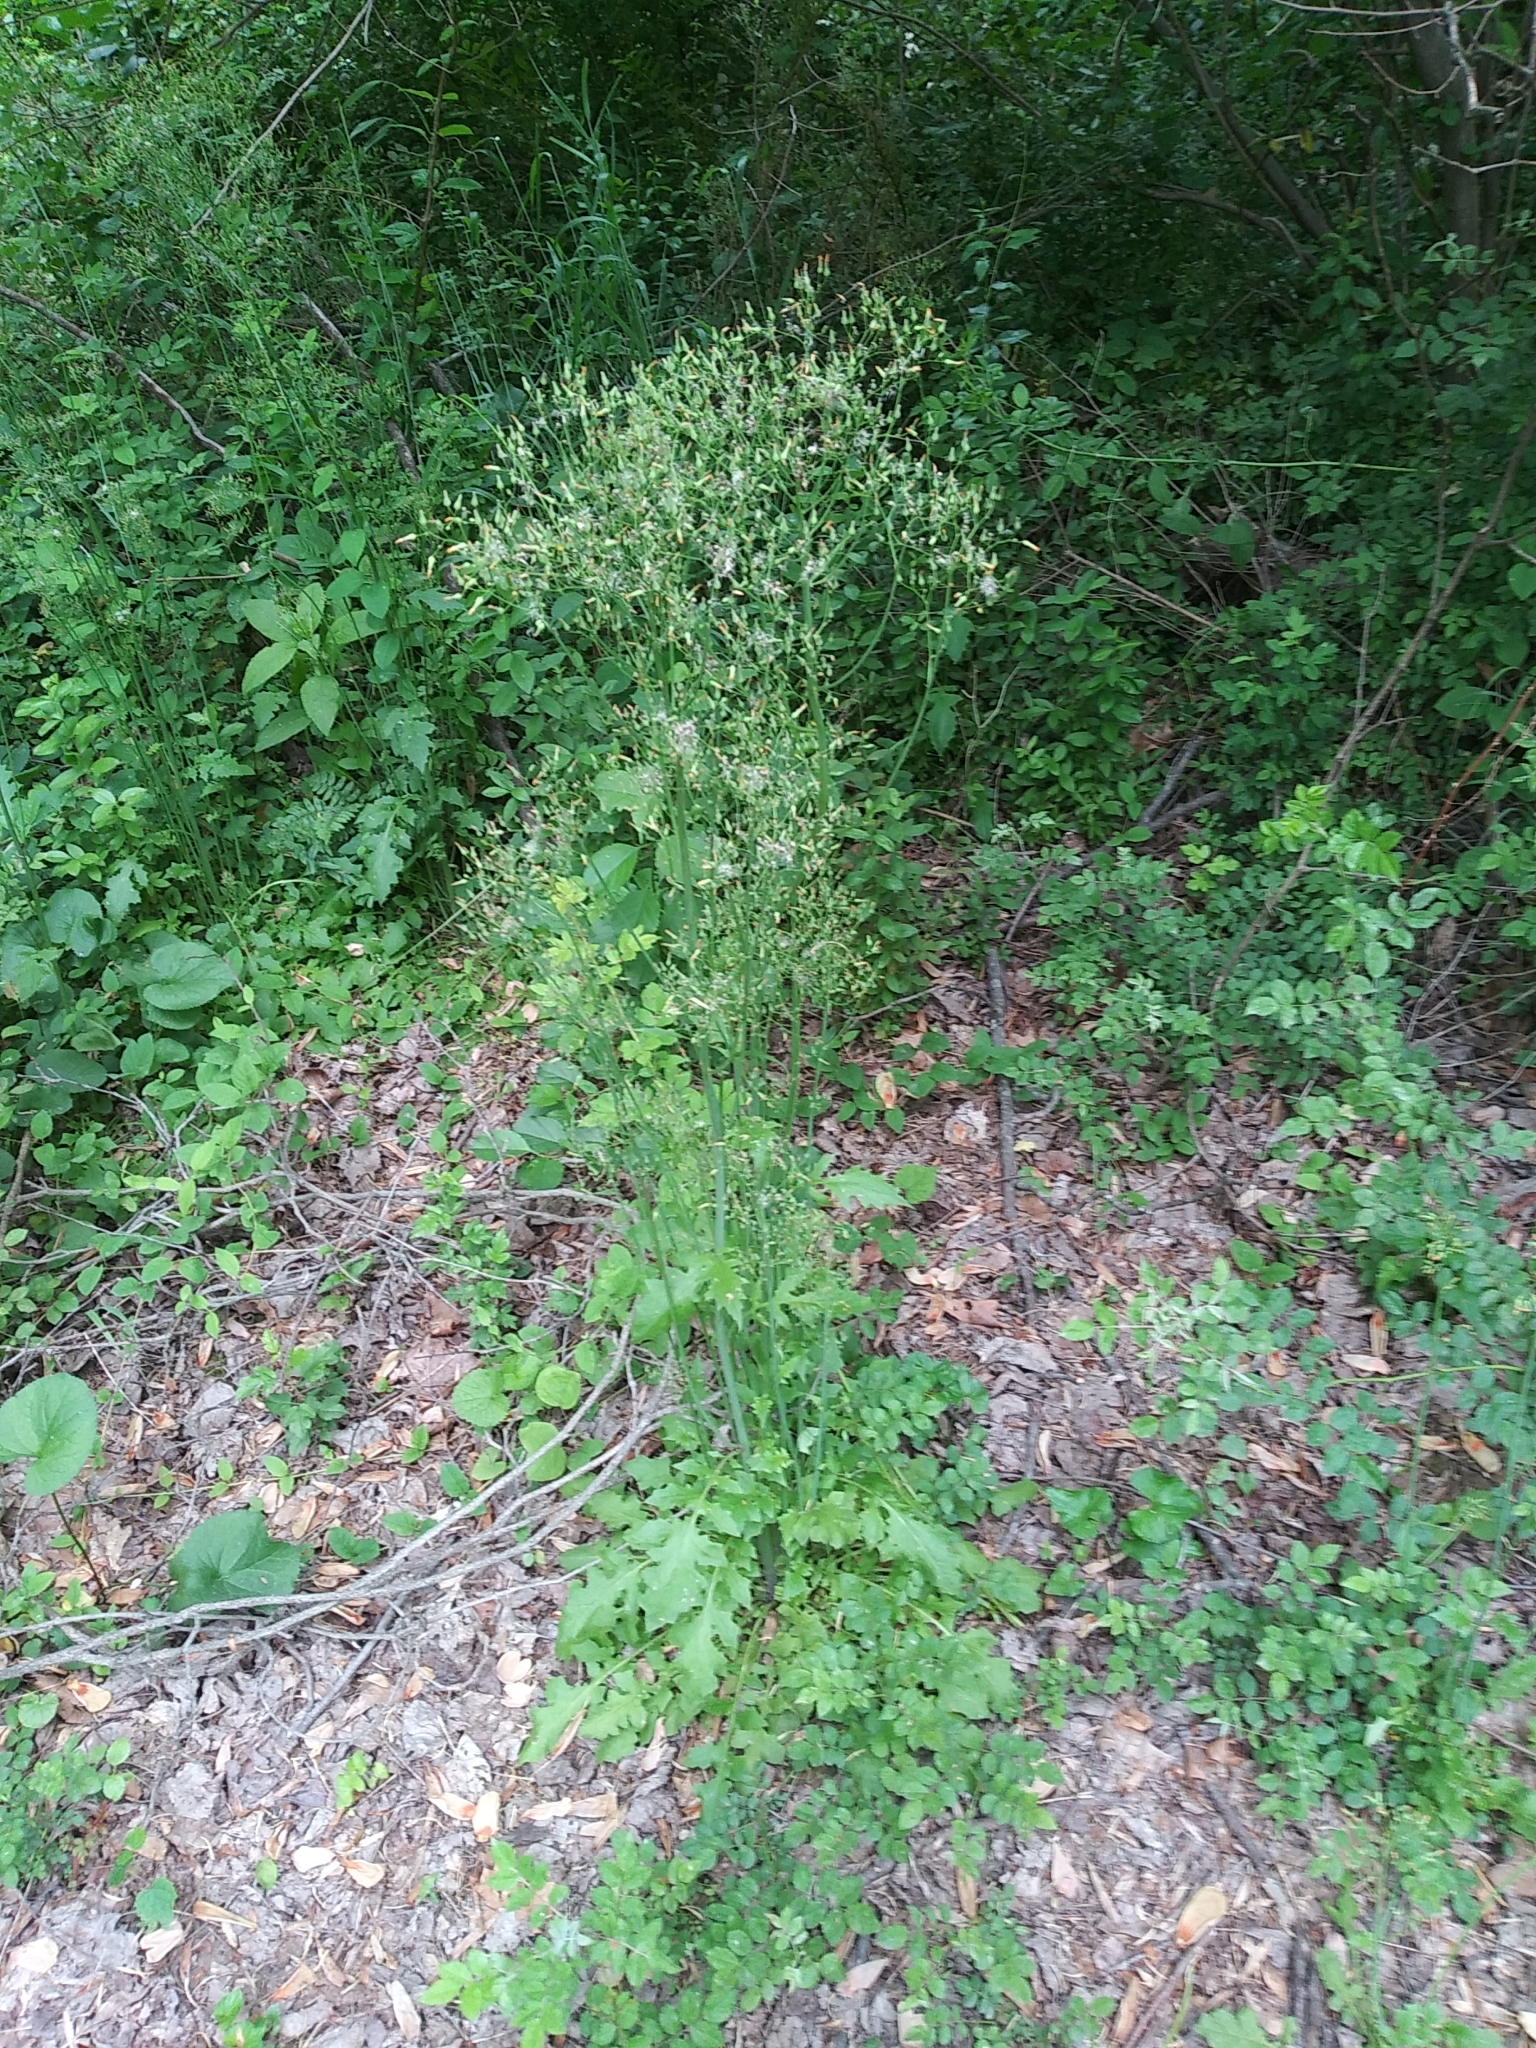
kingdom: Plantae
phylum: Tracheophyta
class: Magnoliopsida
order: Asterales
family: Asteraceae
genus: Youngia
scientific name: Youngia japonica
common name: Oriental false hawksbeard
